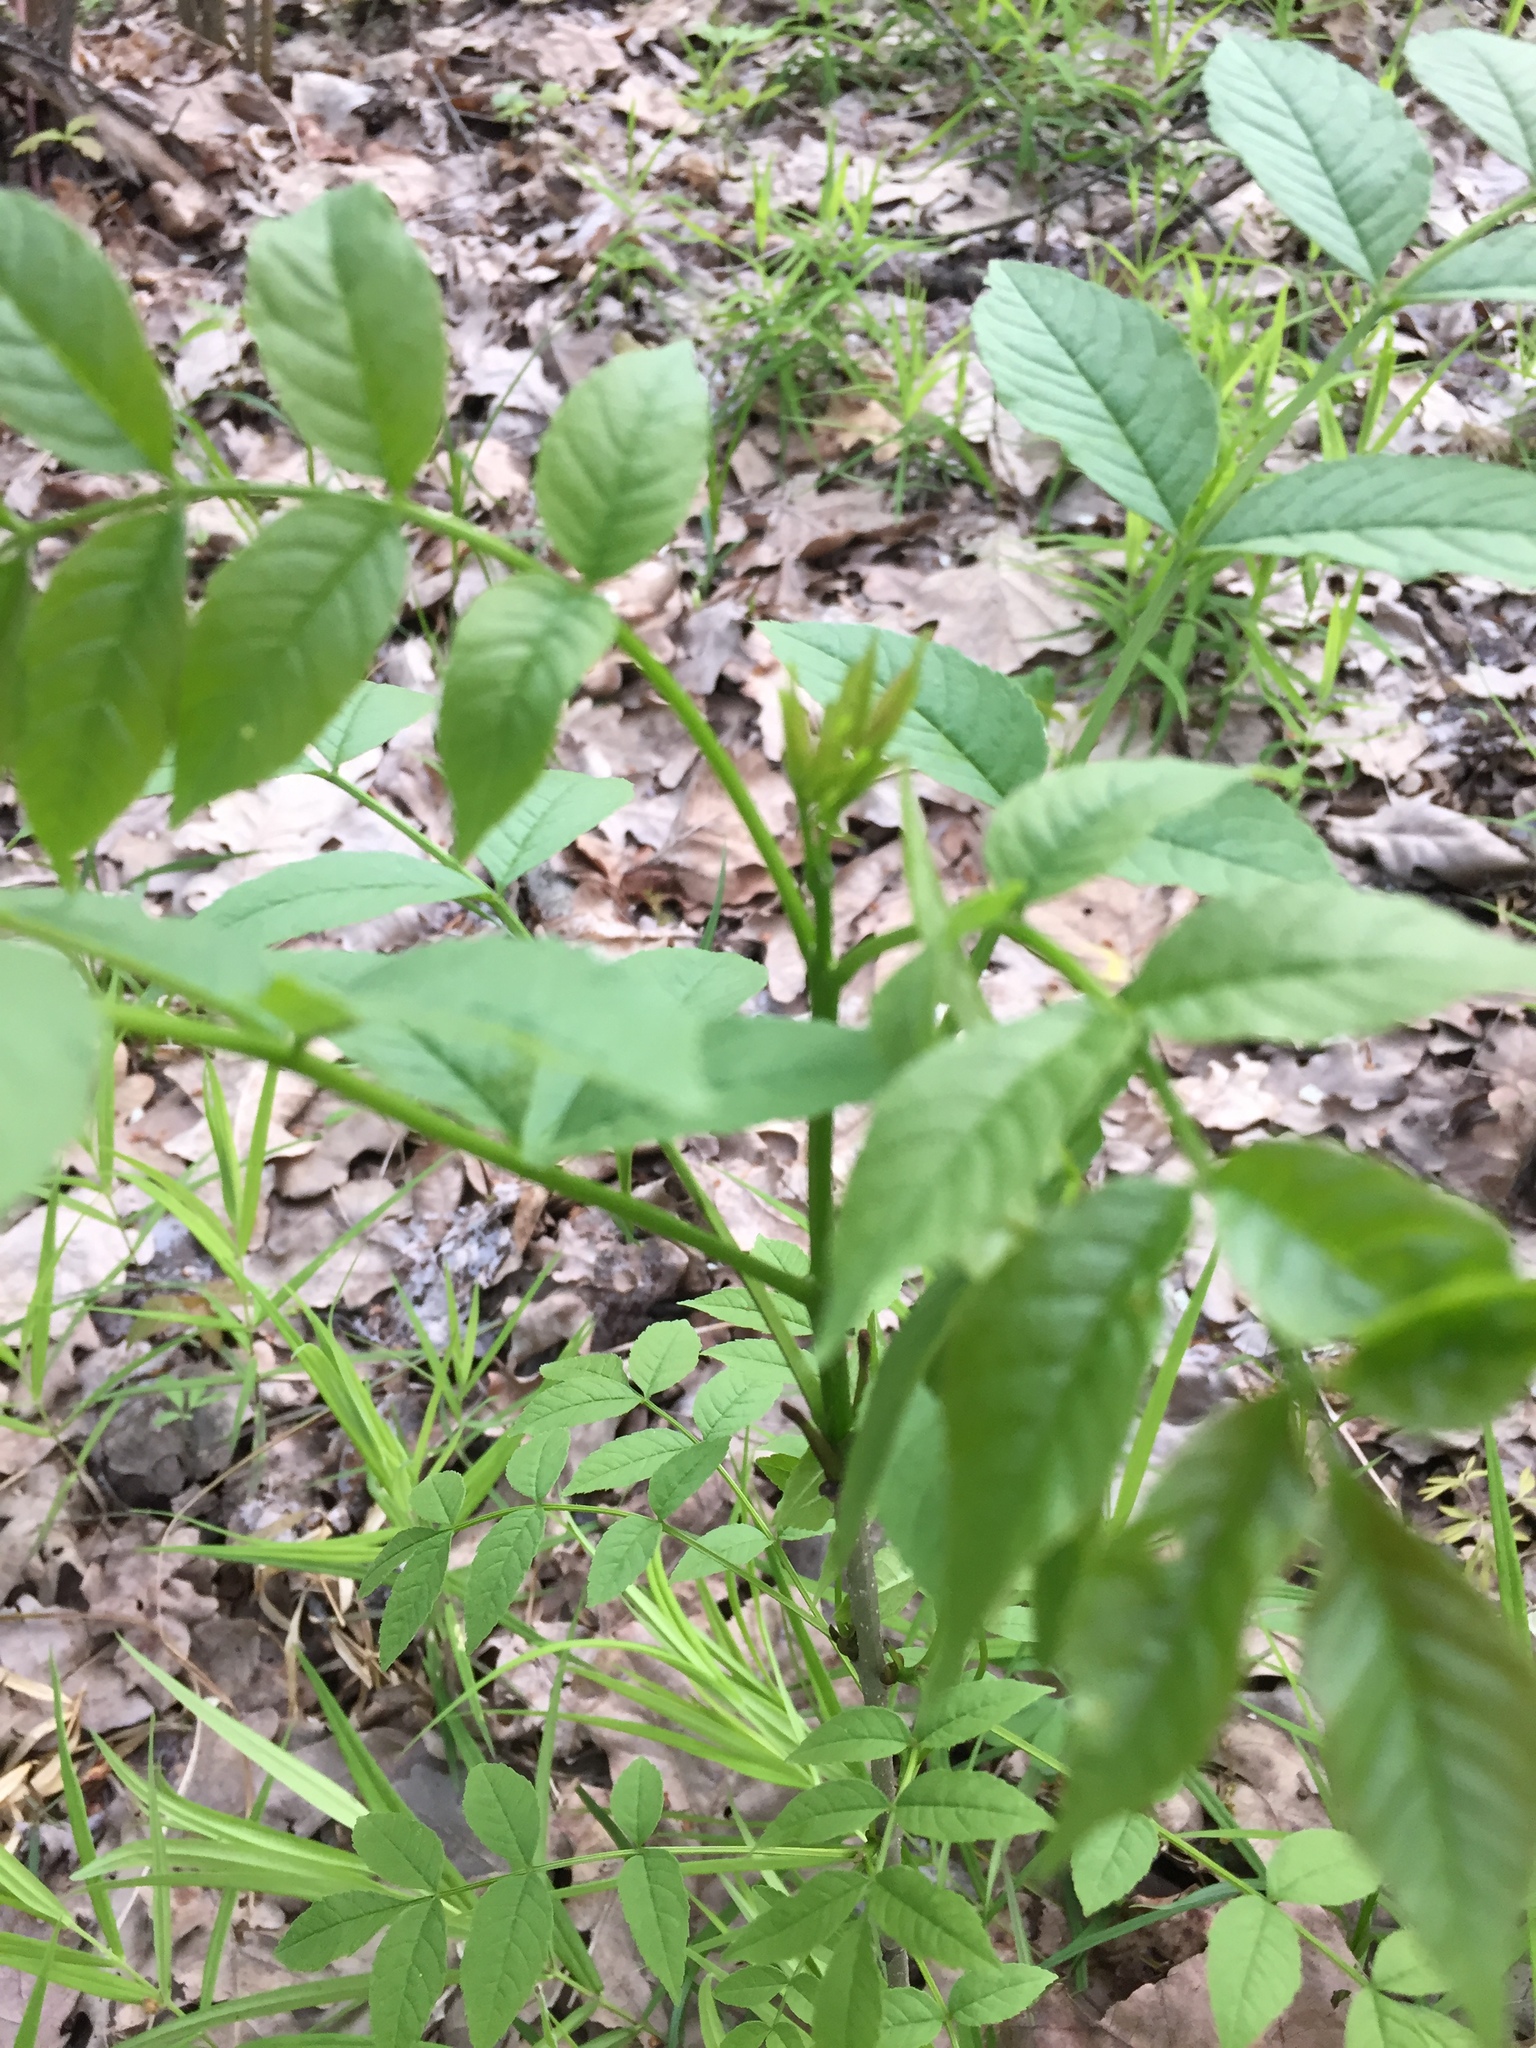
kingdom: Plantae
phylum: Tracheophyta
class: Magnoliopsida
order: Lamiales
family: Oleaceae
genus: Fraxinus
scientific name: Fraxinus excelsior
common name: European ash
